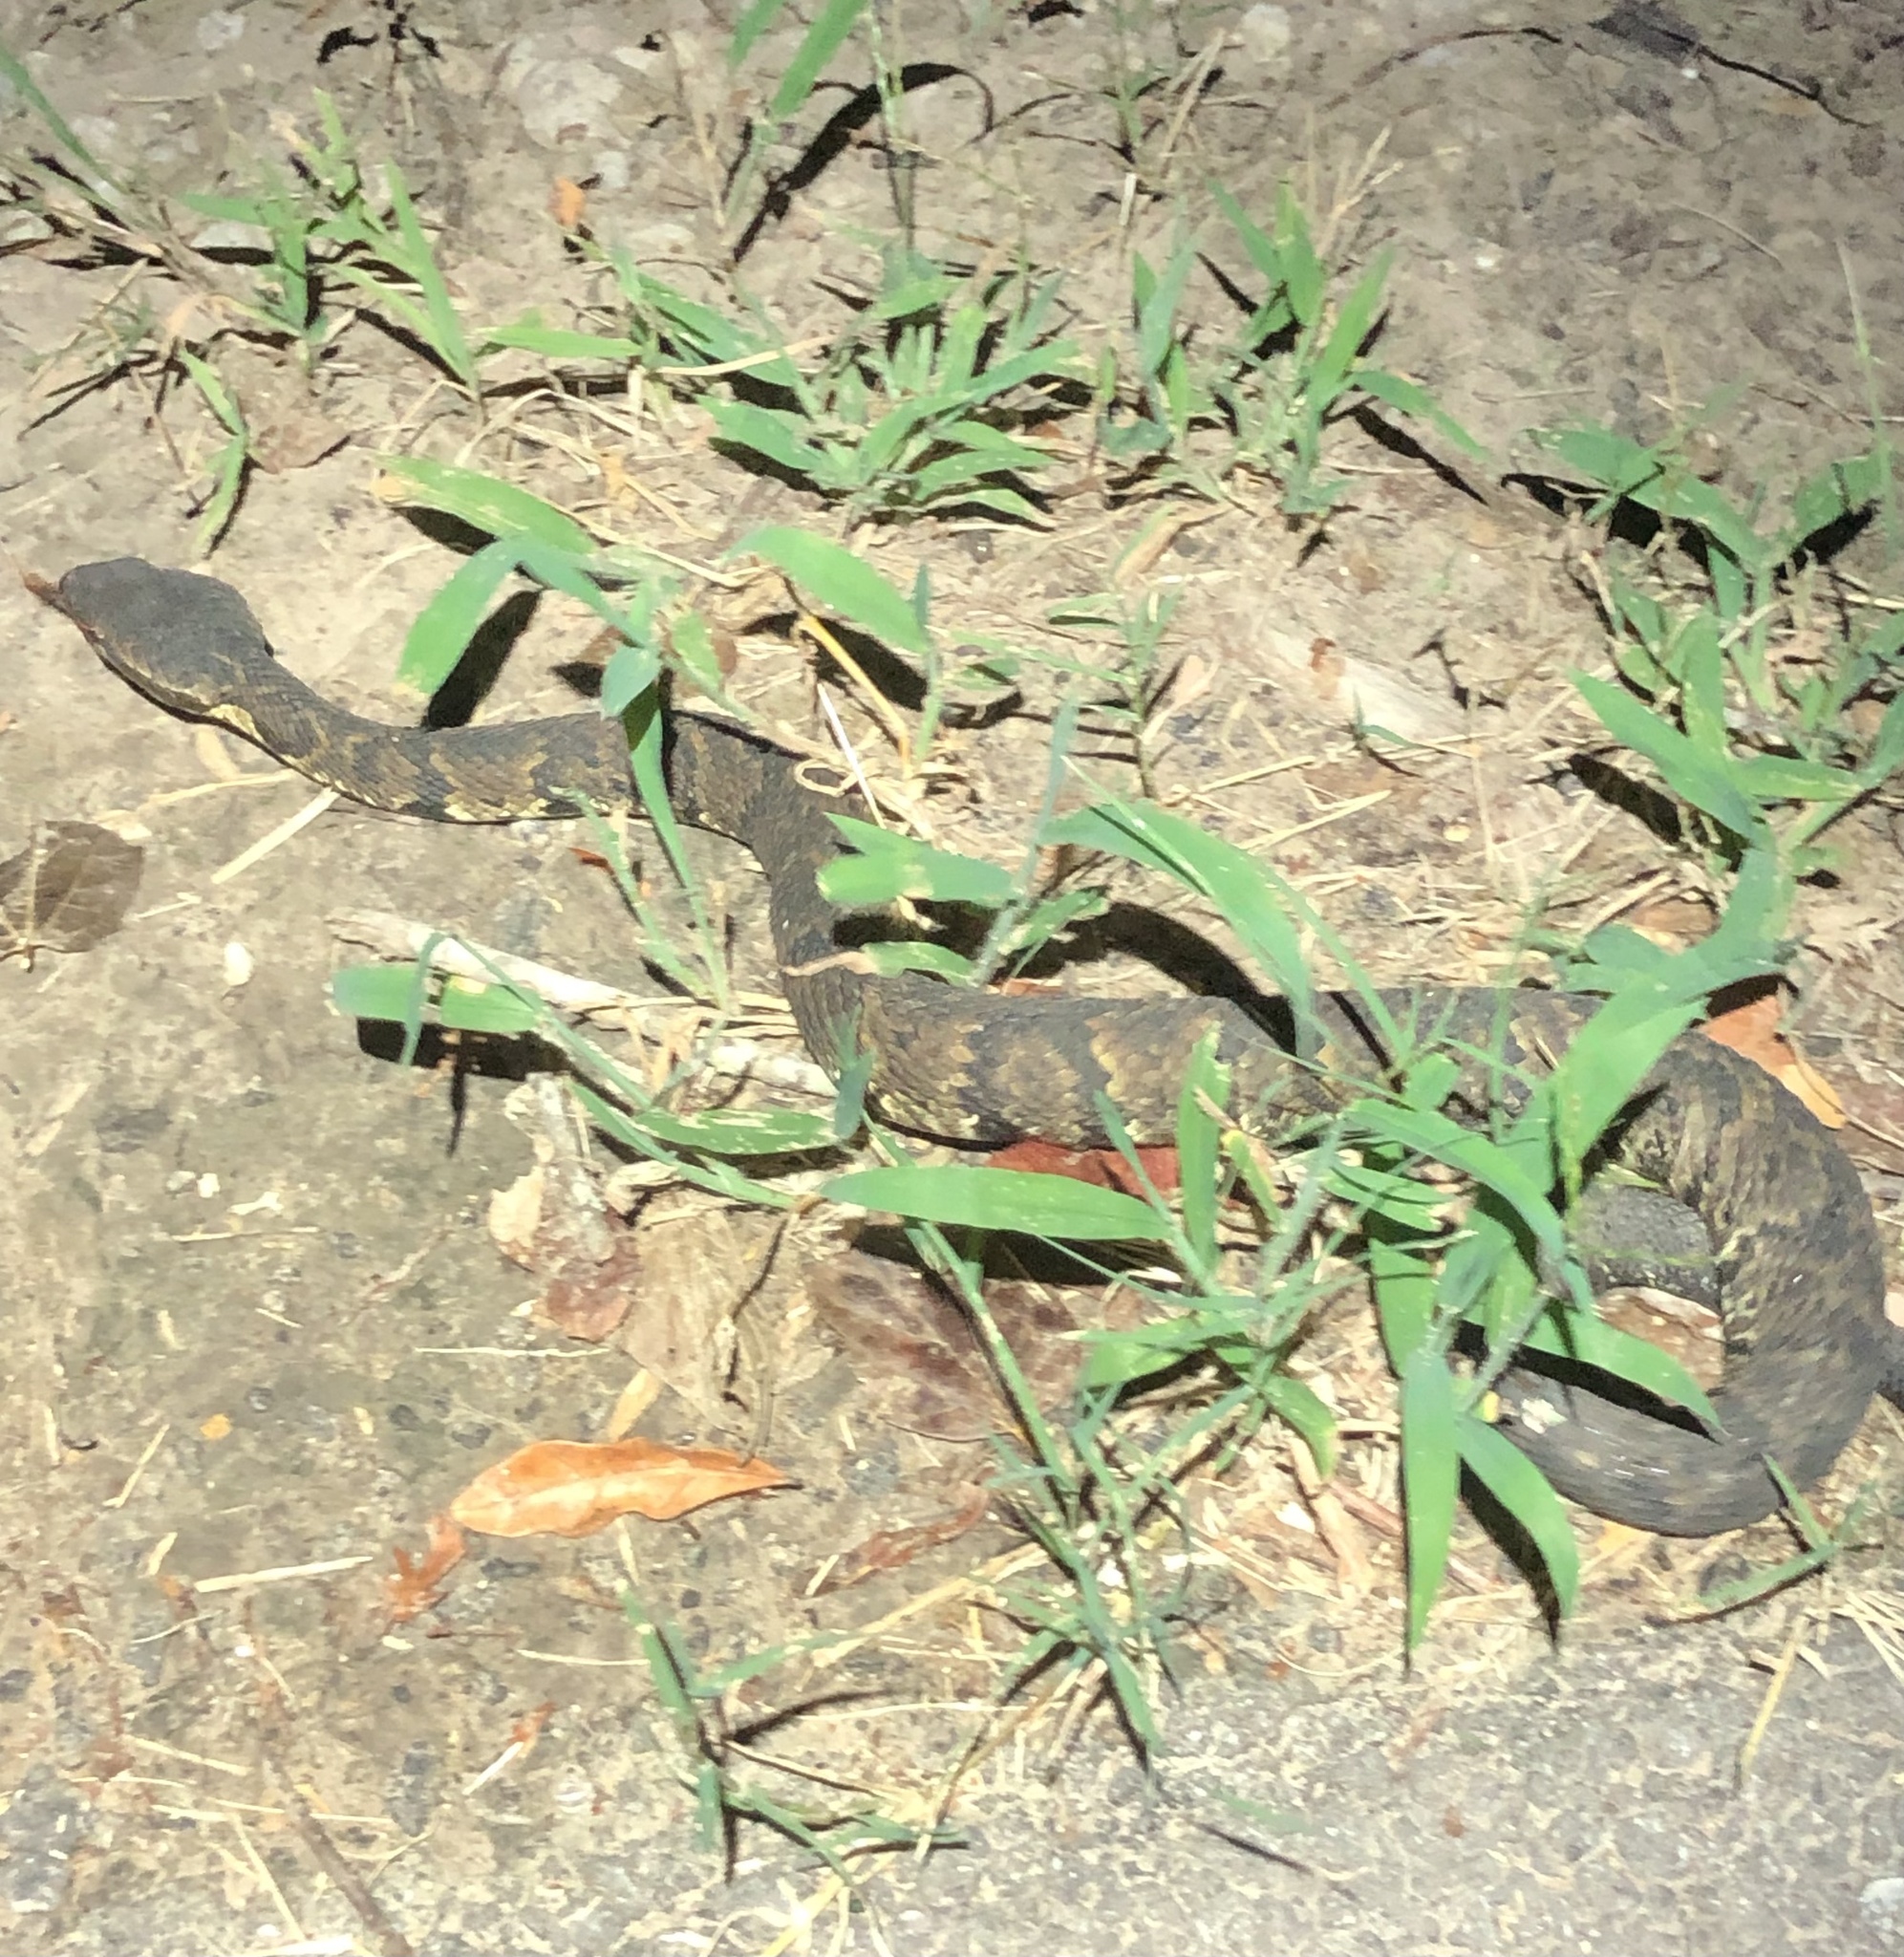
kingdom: Animalia
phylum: Chordata
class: Squamata
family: Viperidae
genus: Agkistrodon
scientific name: Agkistrodon piscivorus
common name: Cottonmouth
